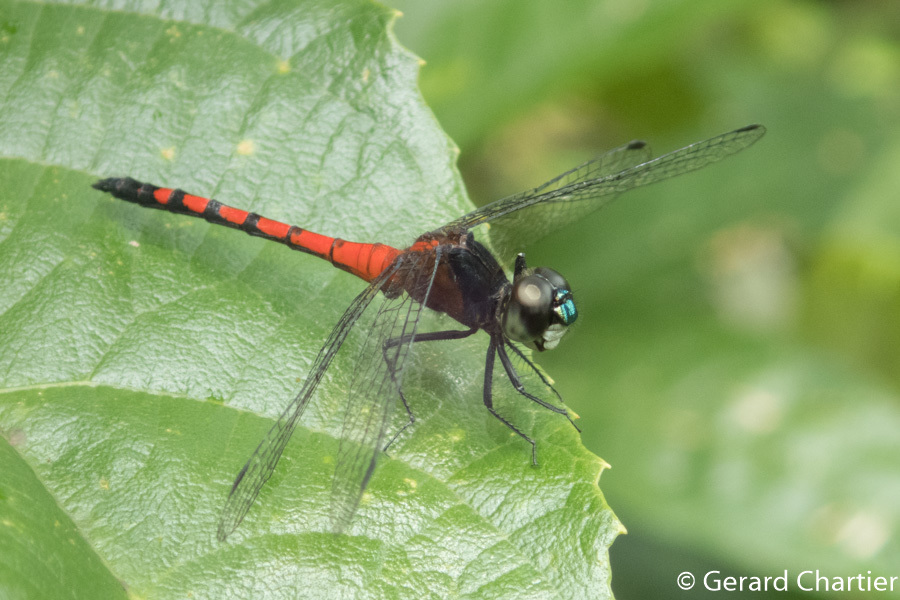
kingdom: Animalia
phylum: Arthropoda
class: Insecta
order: Odonata
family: Libellulidae
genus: Amphithemis
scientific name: Amphithemis curvistyla
